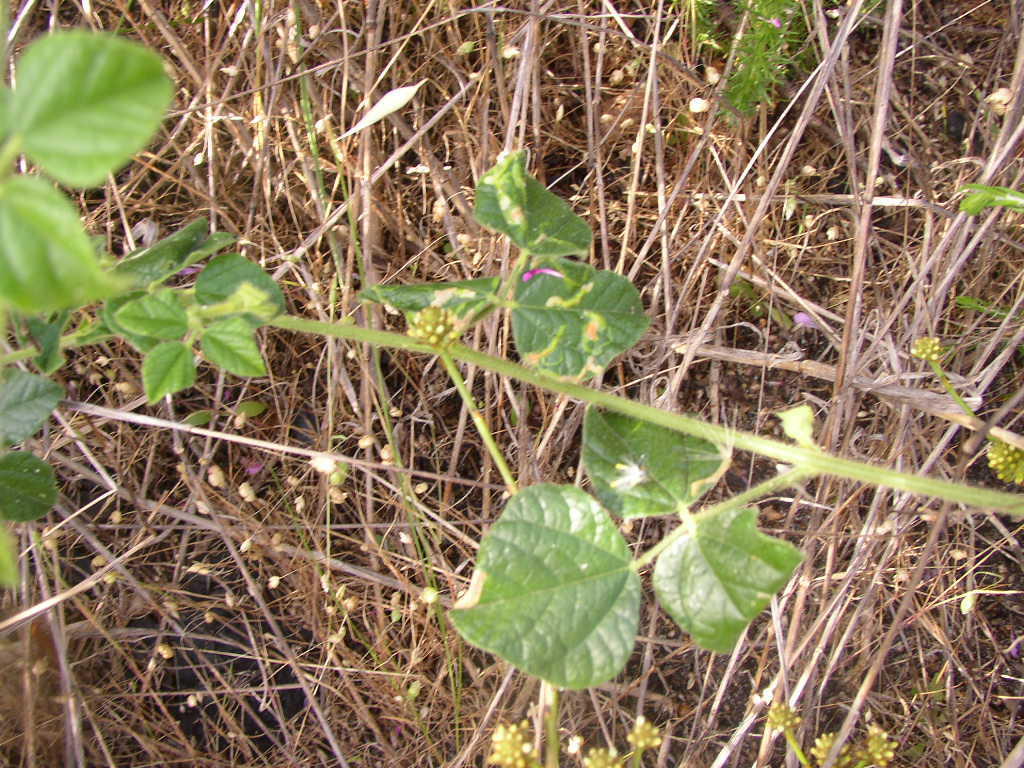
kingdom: Plantae
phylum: Tracheophyta
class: Magnoliopsida
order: Fabales
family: Fabaceae
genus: Bolusafra
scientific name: Bolusafra bituminosa
